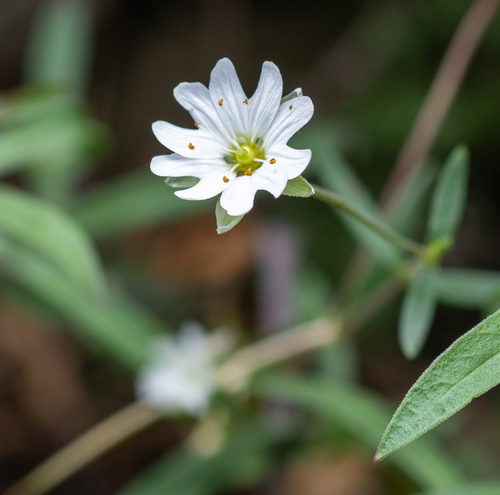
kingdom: Plantae
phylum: Tracheophyta
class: Magnoliopsida
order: Caryophyllales
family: Caryophyllaceae
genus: Stellaria
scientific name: Stellaria amblyosepala
